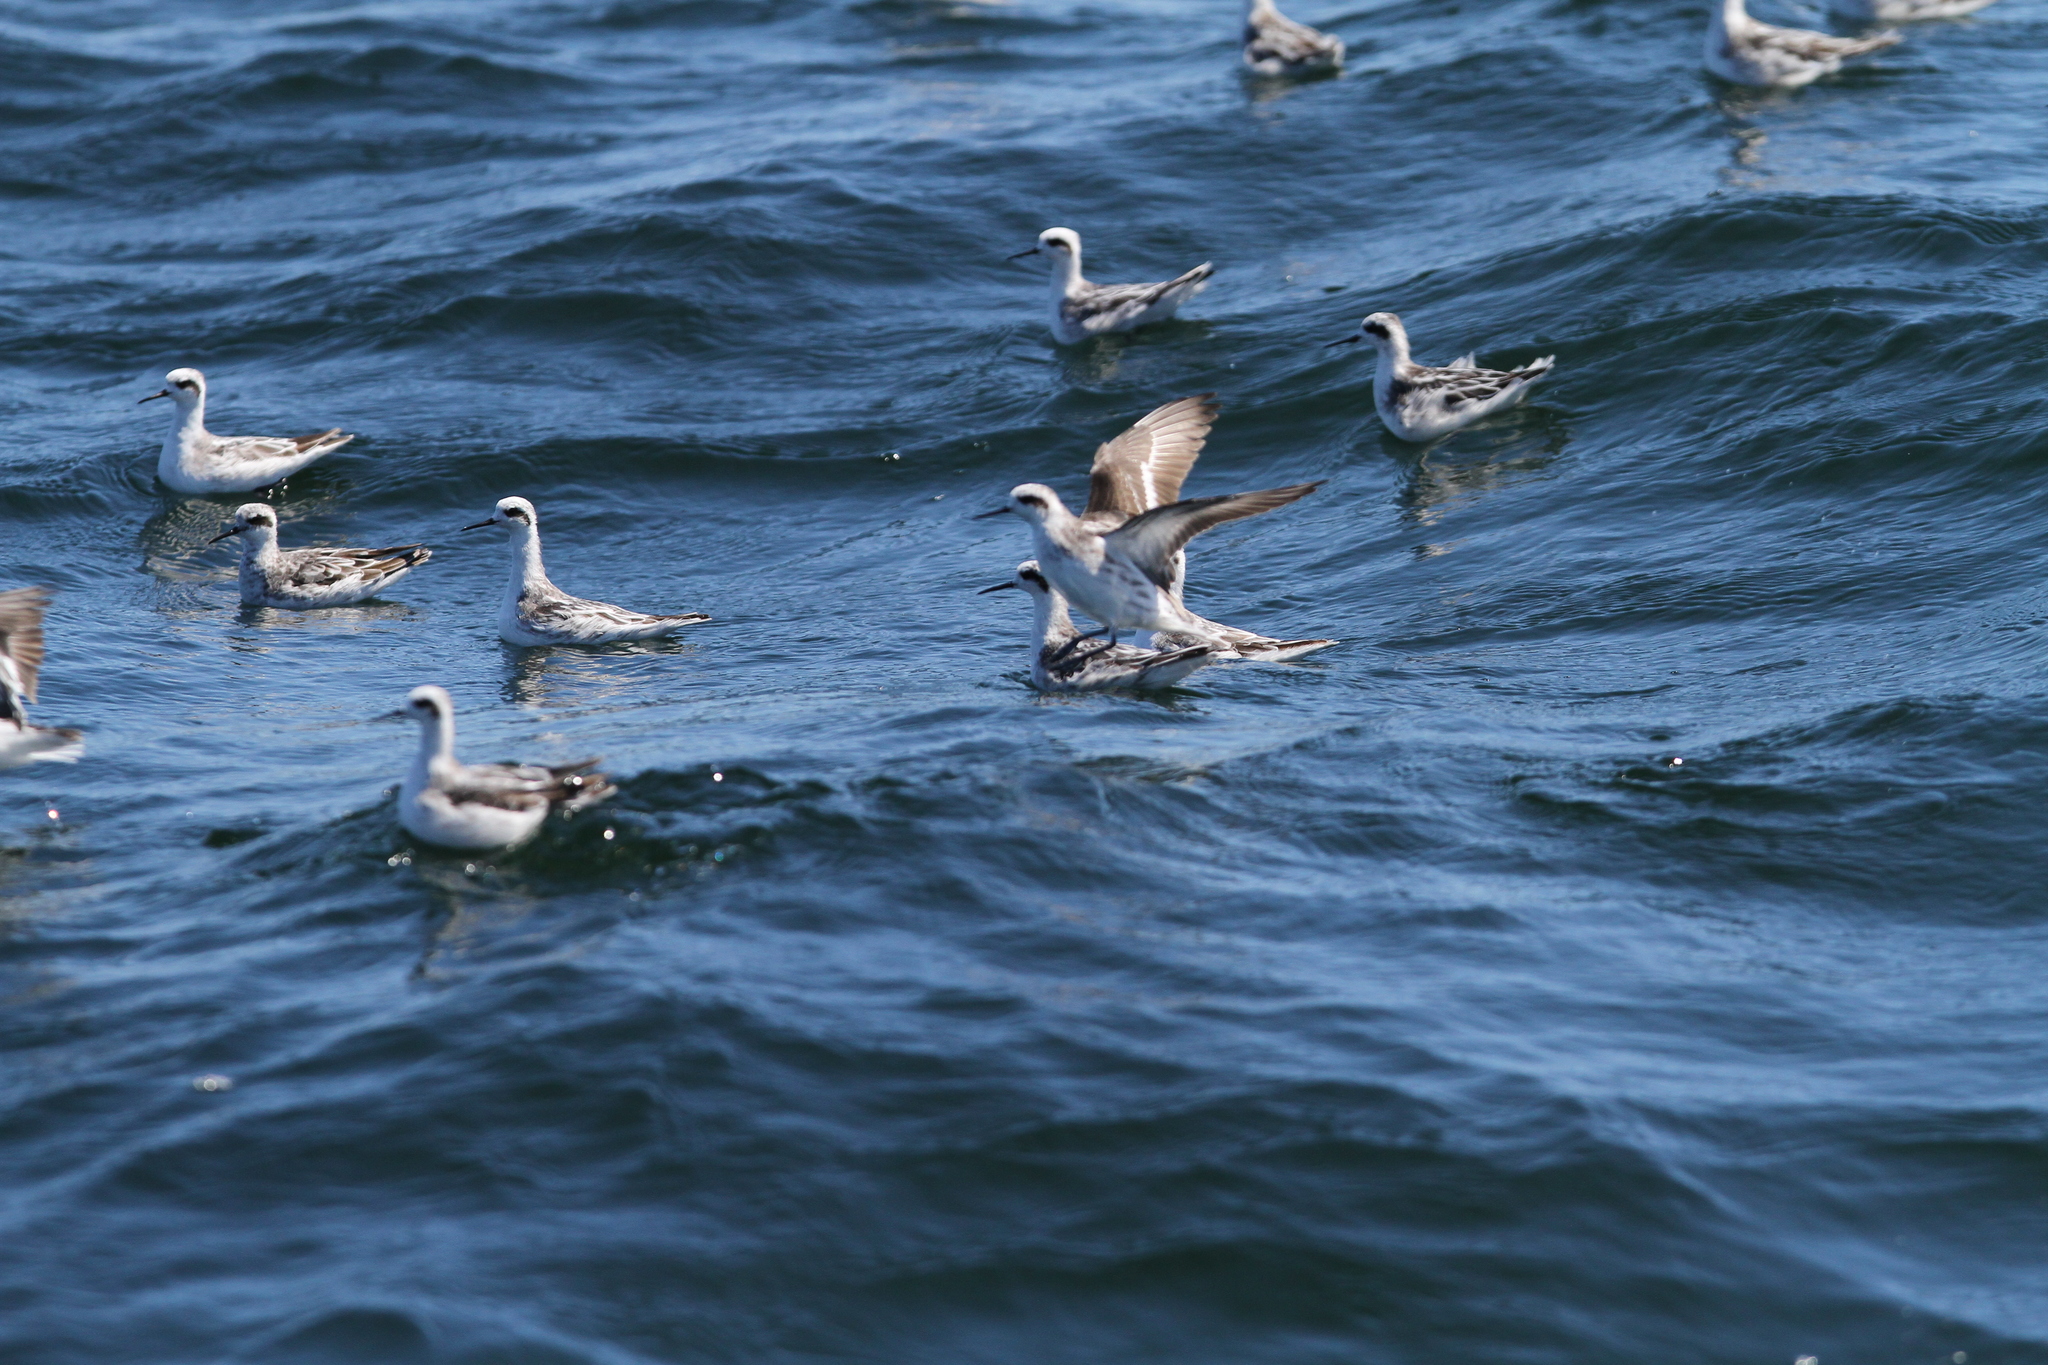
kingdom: Animalia
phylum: Chordata
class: Aves
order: Charadriiformes
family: Scolopacidae
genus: Phalaropus
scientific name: Phalaropus lobatus
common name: Red-necked phalarope
